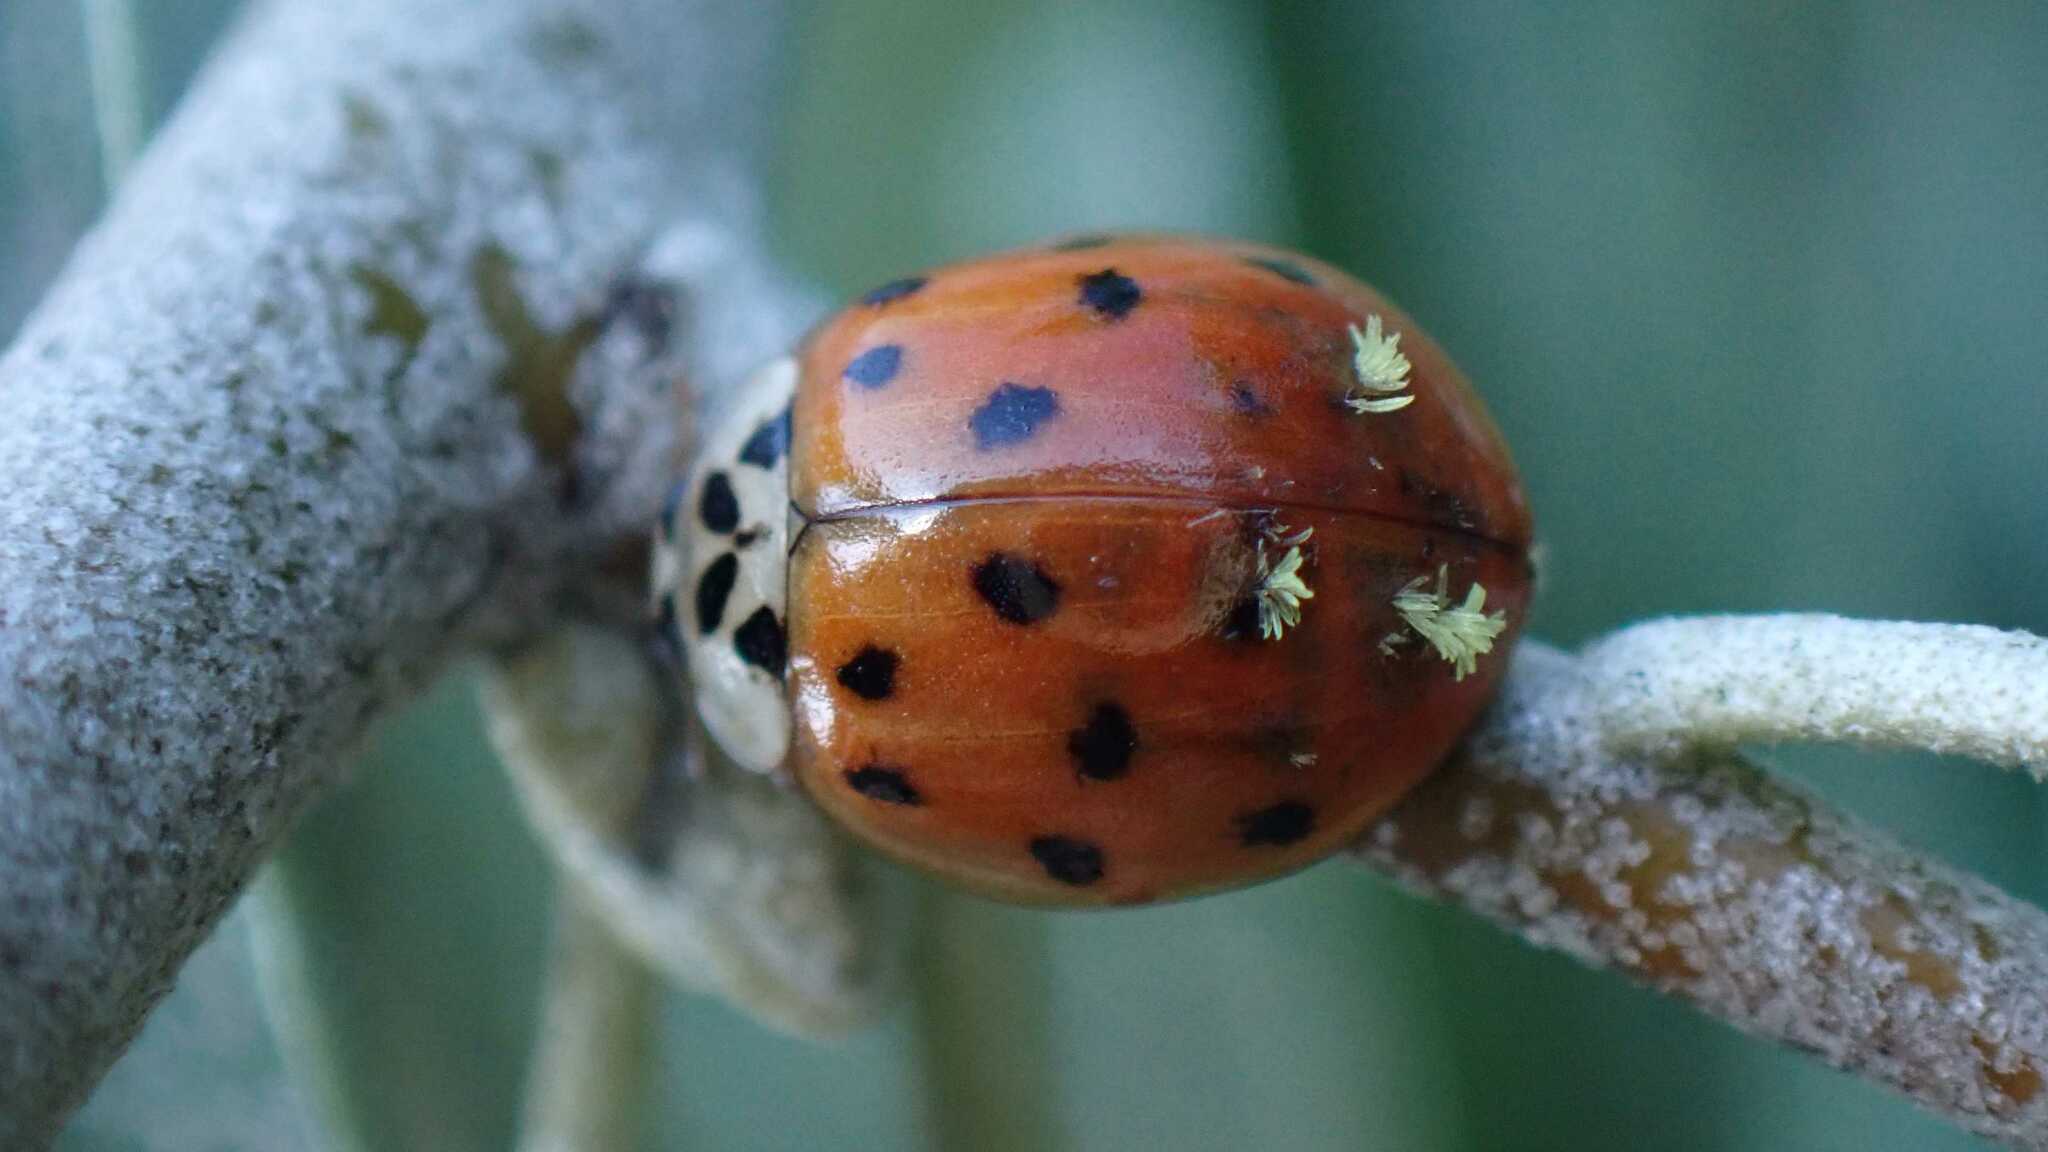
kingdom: Fungi
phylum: Ascomycota
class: Laboulbeniomycetes
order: Laboulbeniales
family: Laboulbeniaceae
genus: Hesperomyces
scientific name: Hesperomyces harmoniae
